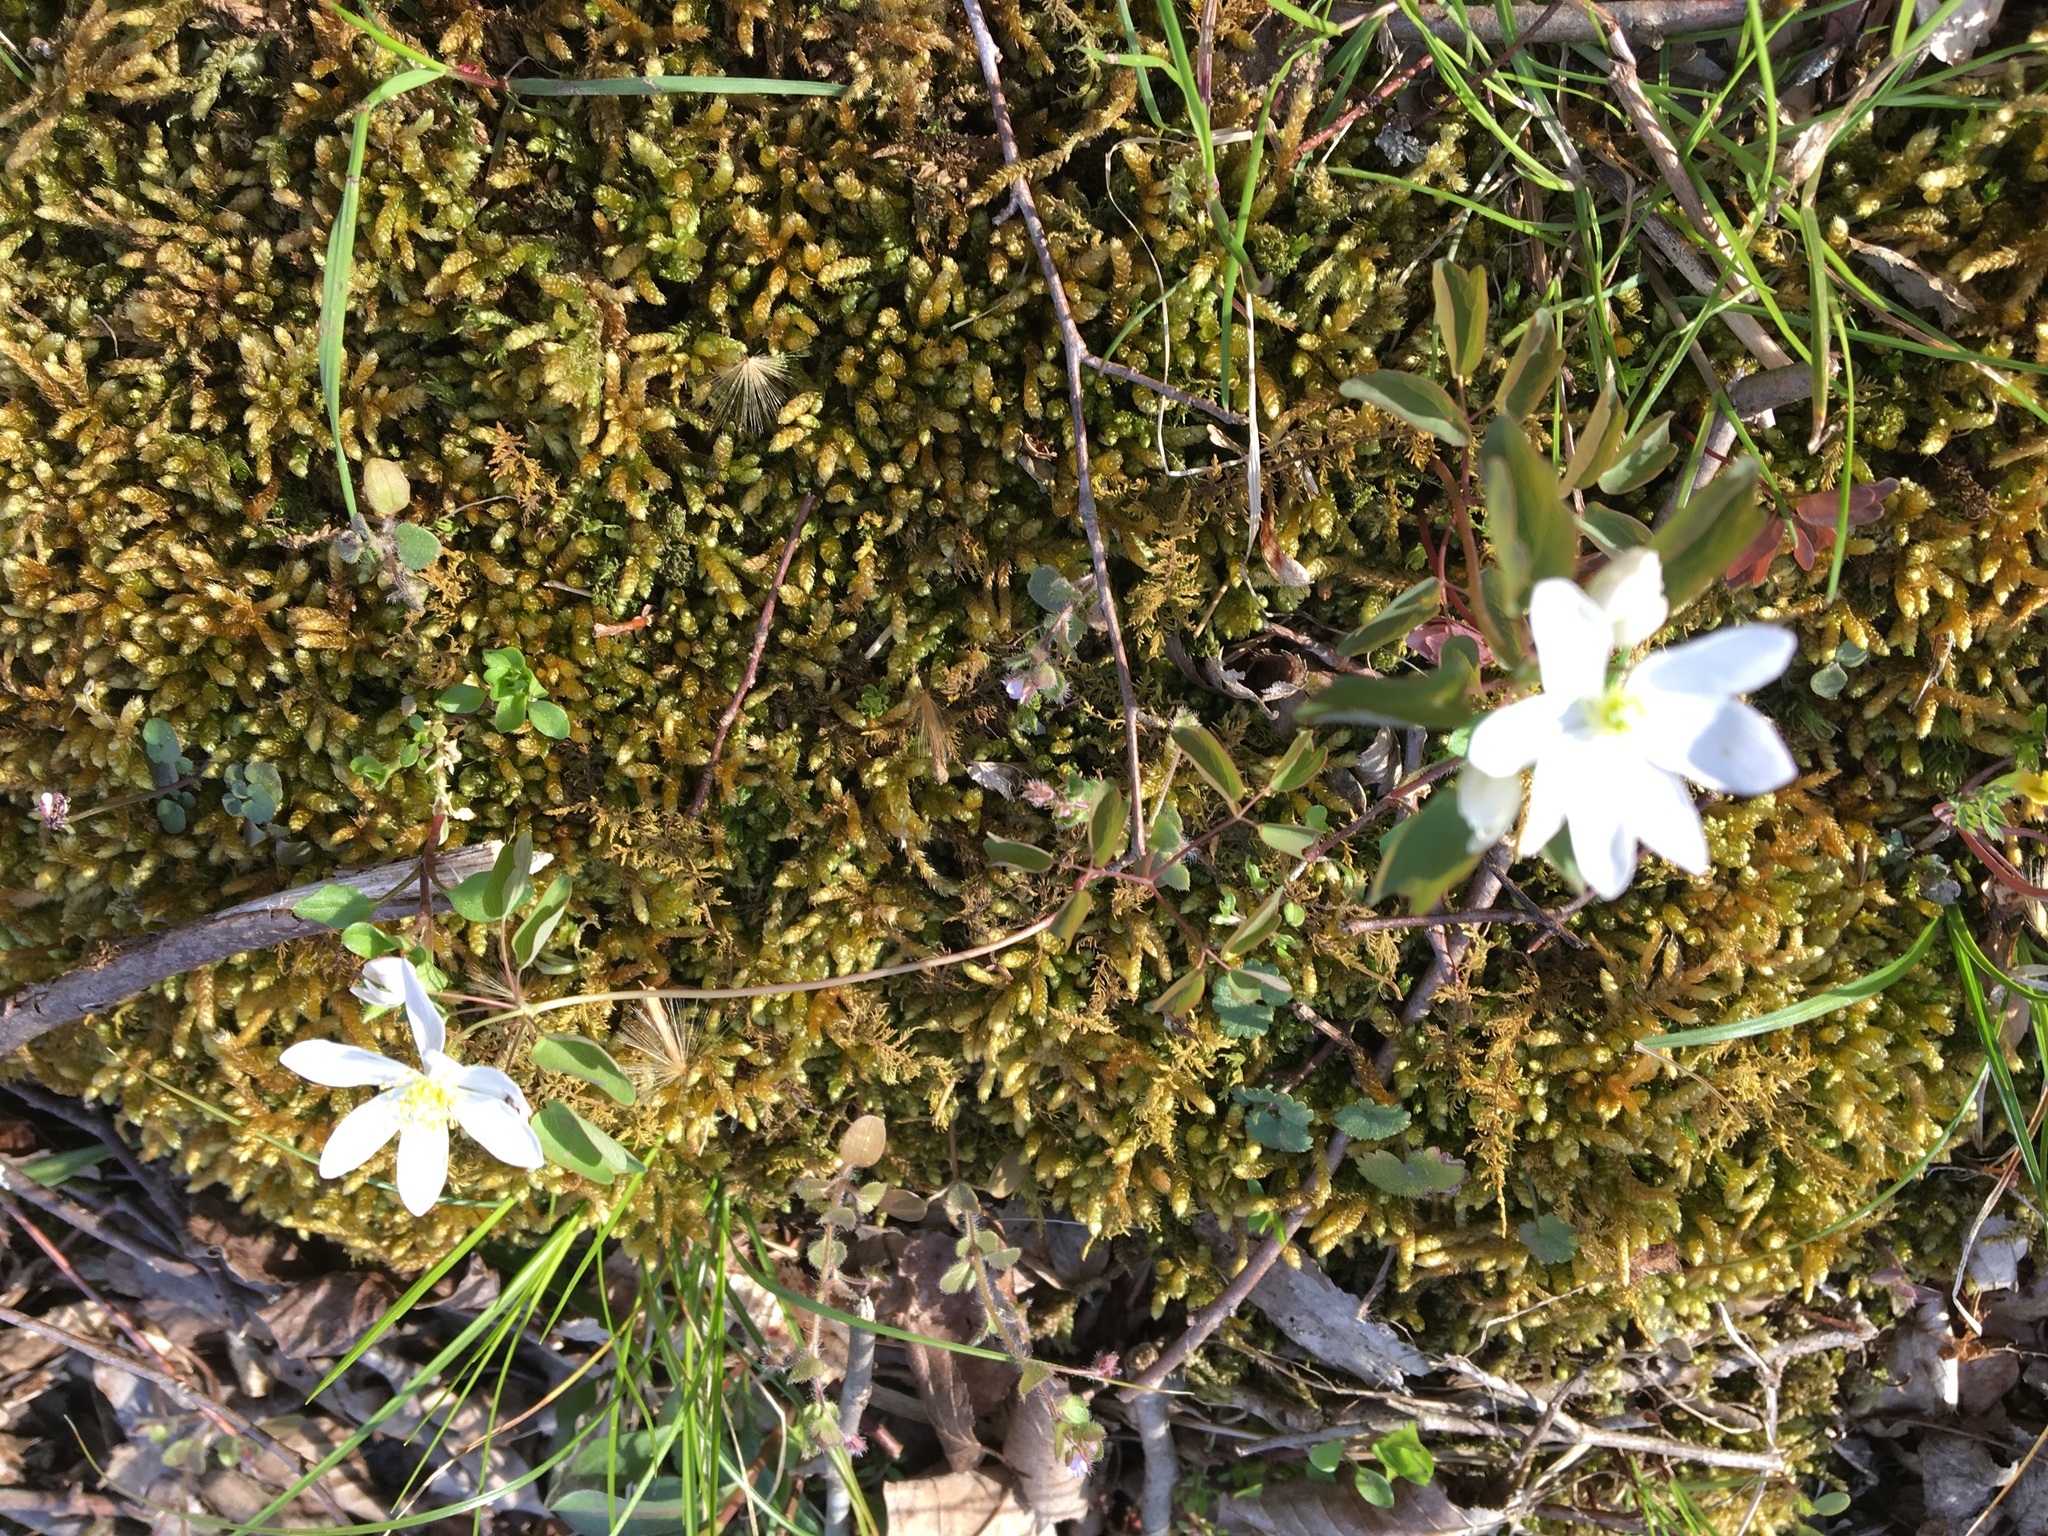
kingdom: Plantae
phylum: Tracheophyta
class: Magnoliopsida
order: Ranunculales
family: Ranunculaceae
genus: Thalictrum
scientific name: Thalictrum thalictroides
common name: Rue-anemone
